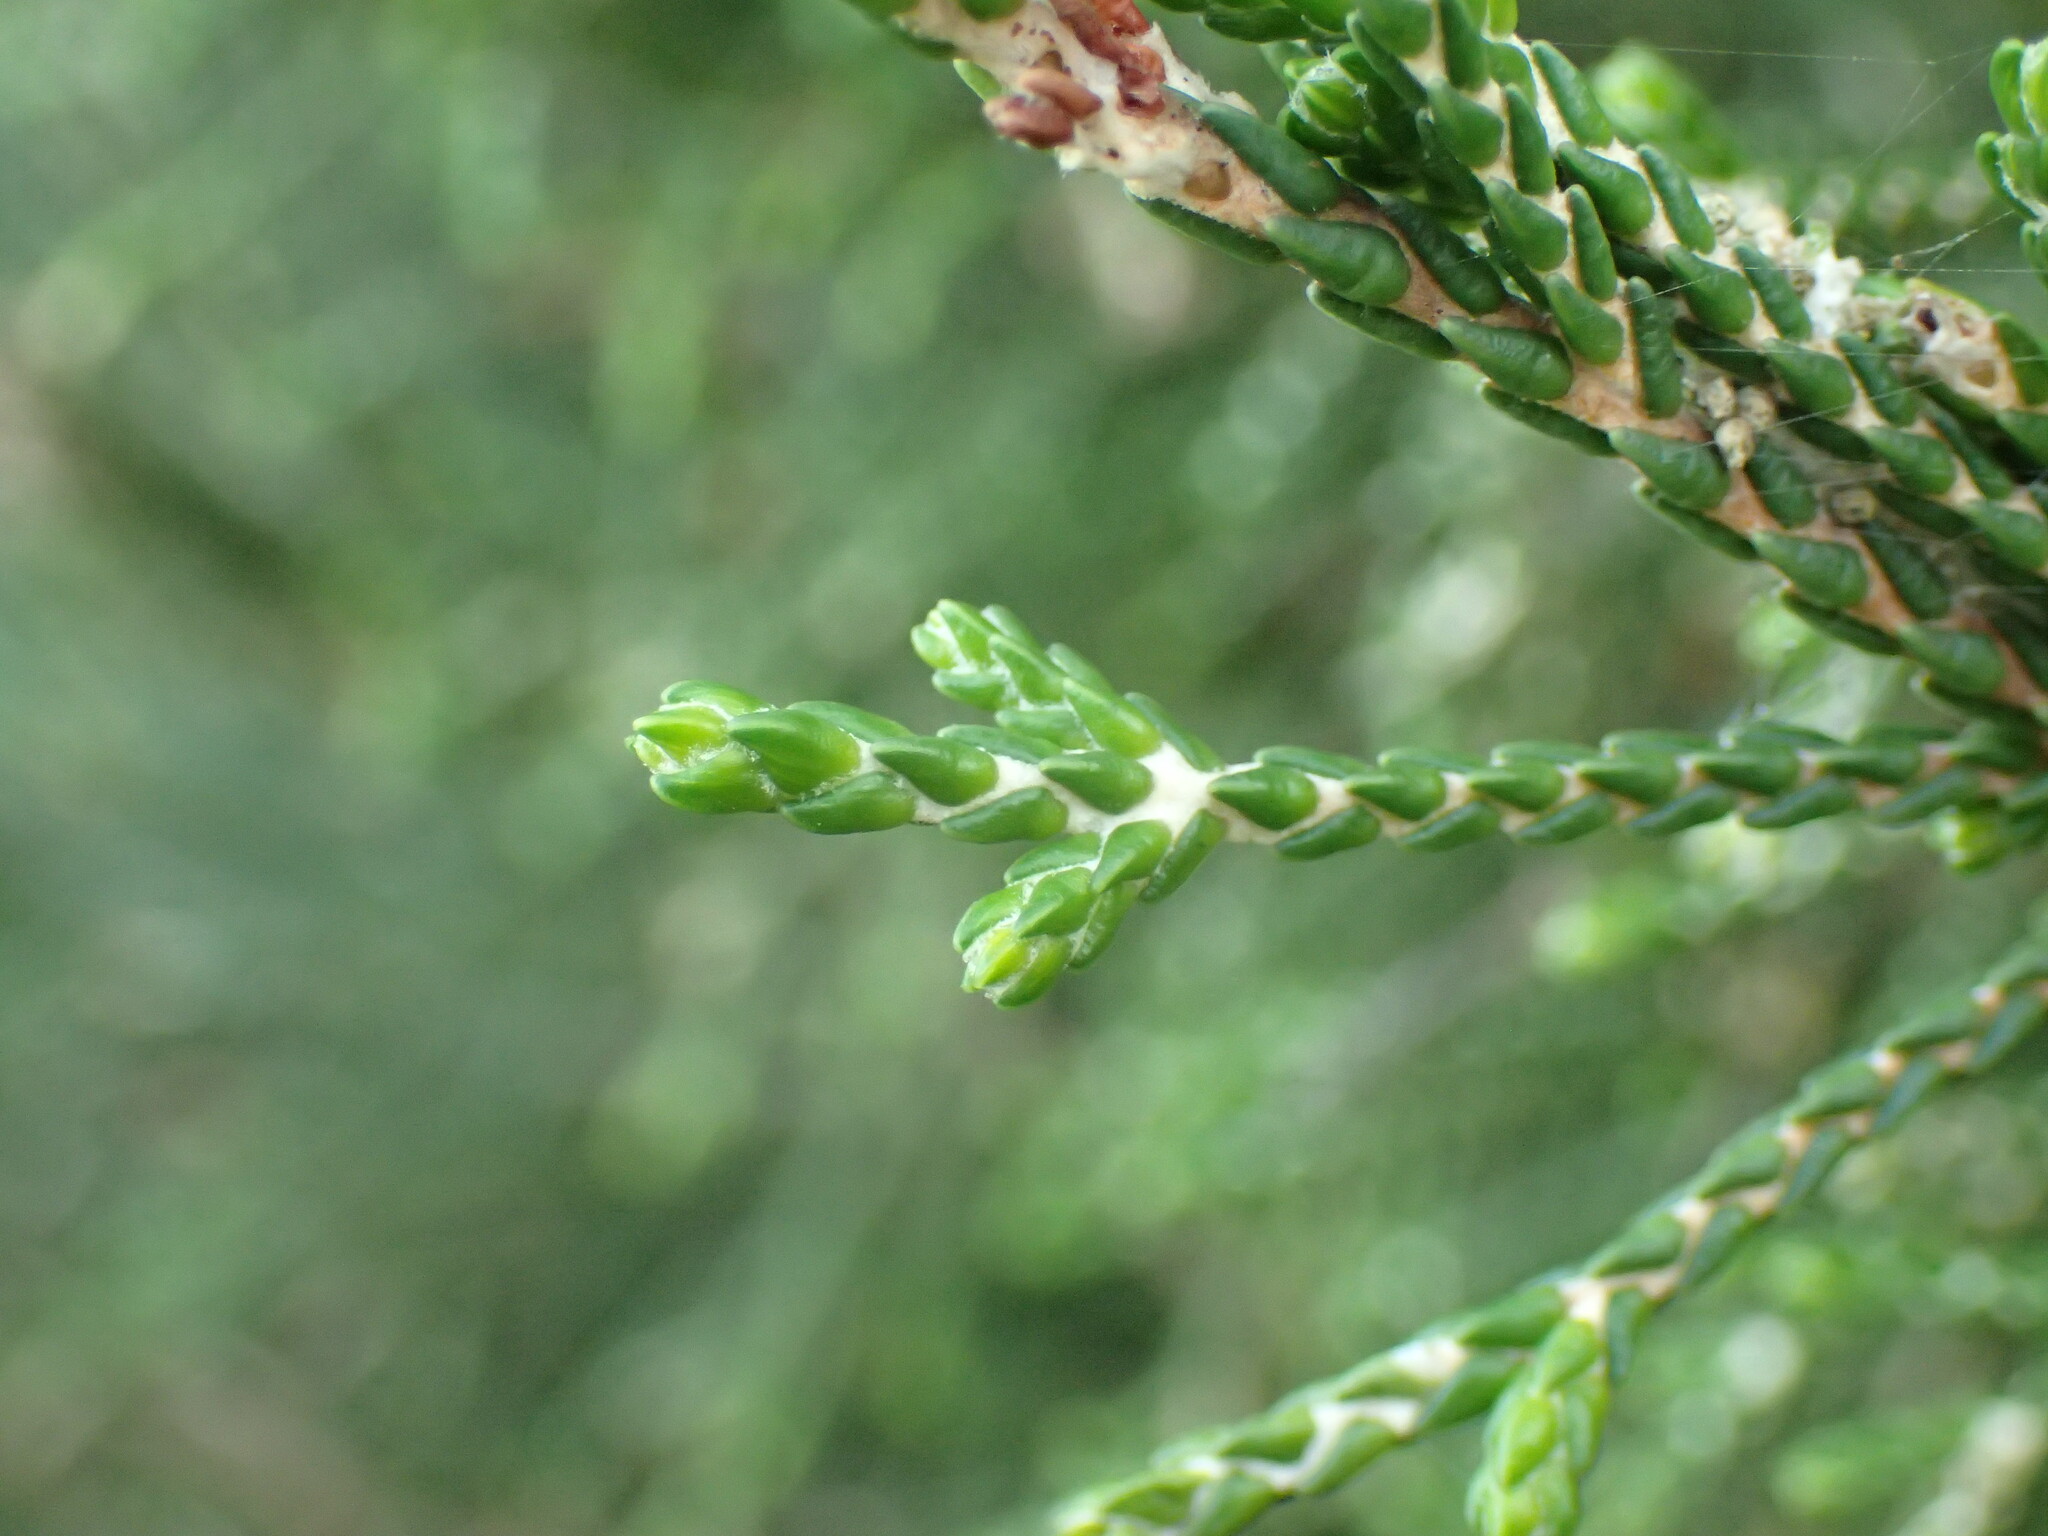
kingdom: Plantae
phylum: Tracheophyta
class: Magnoliopsida
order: Malvales
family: Thymelaeaceae
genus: Passerina
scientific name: Passerina rigida
